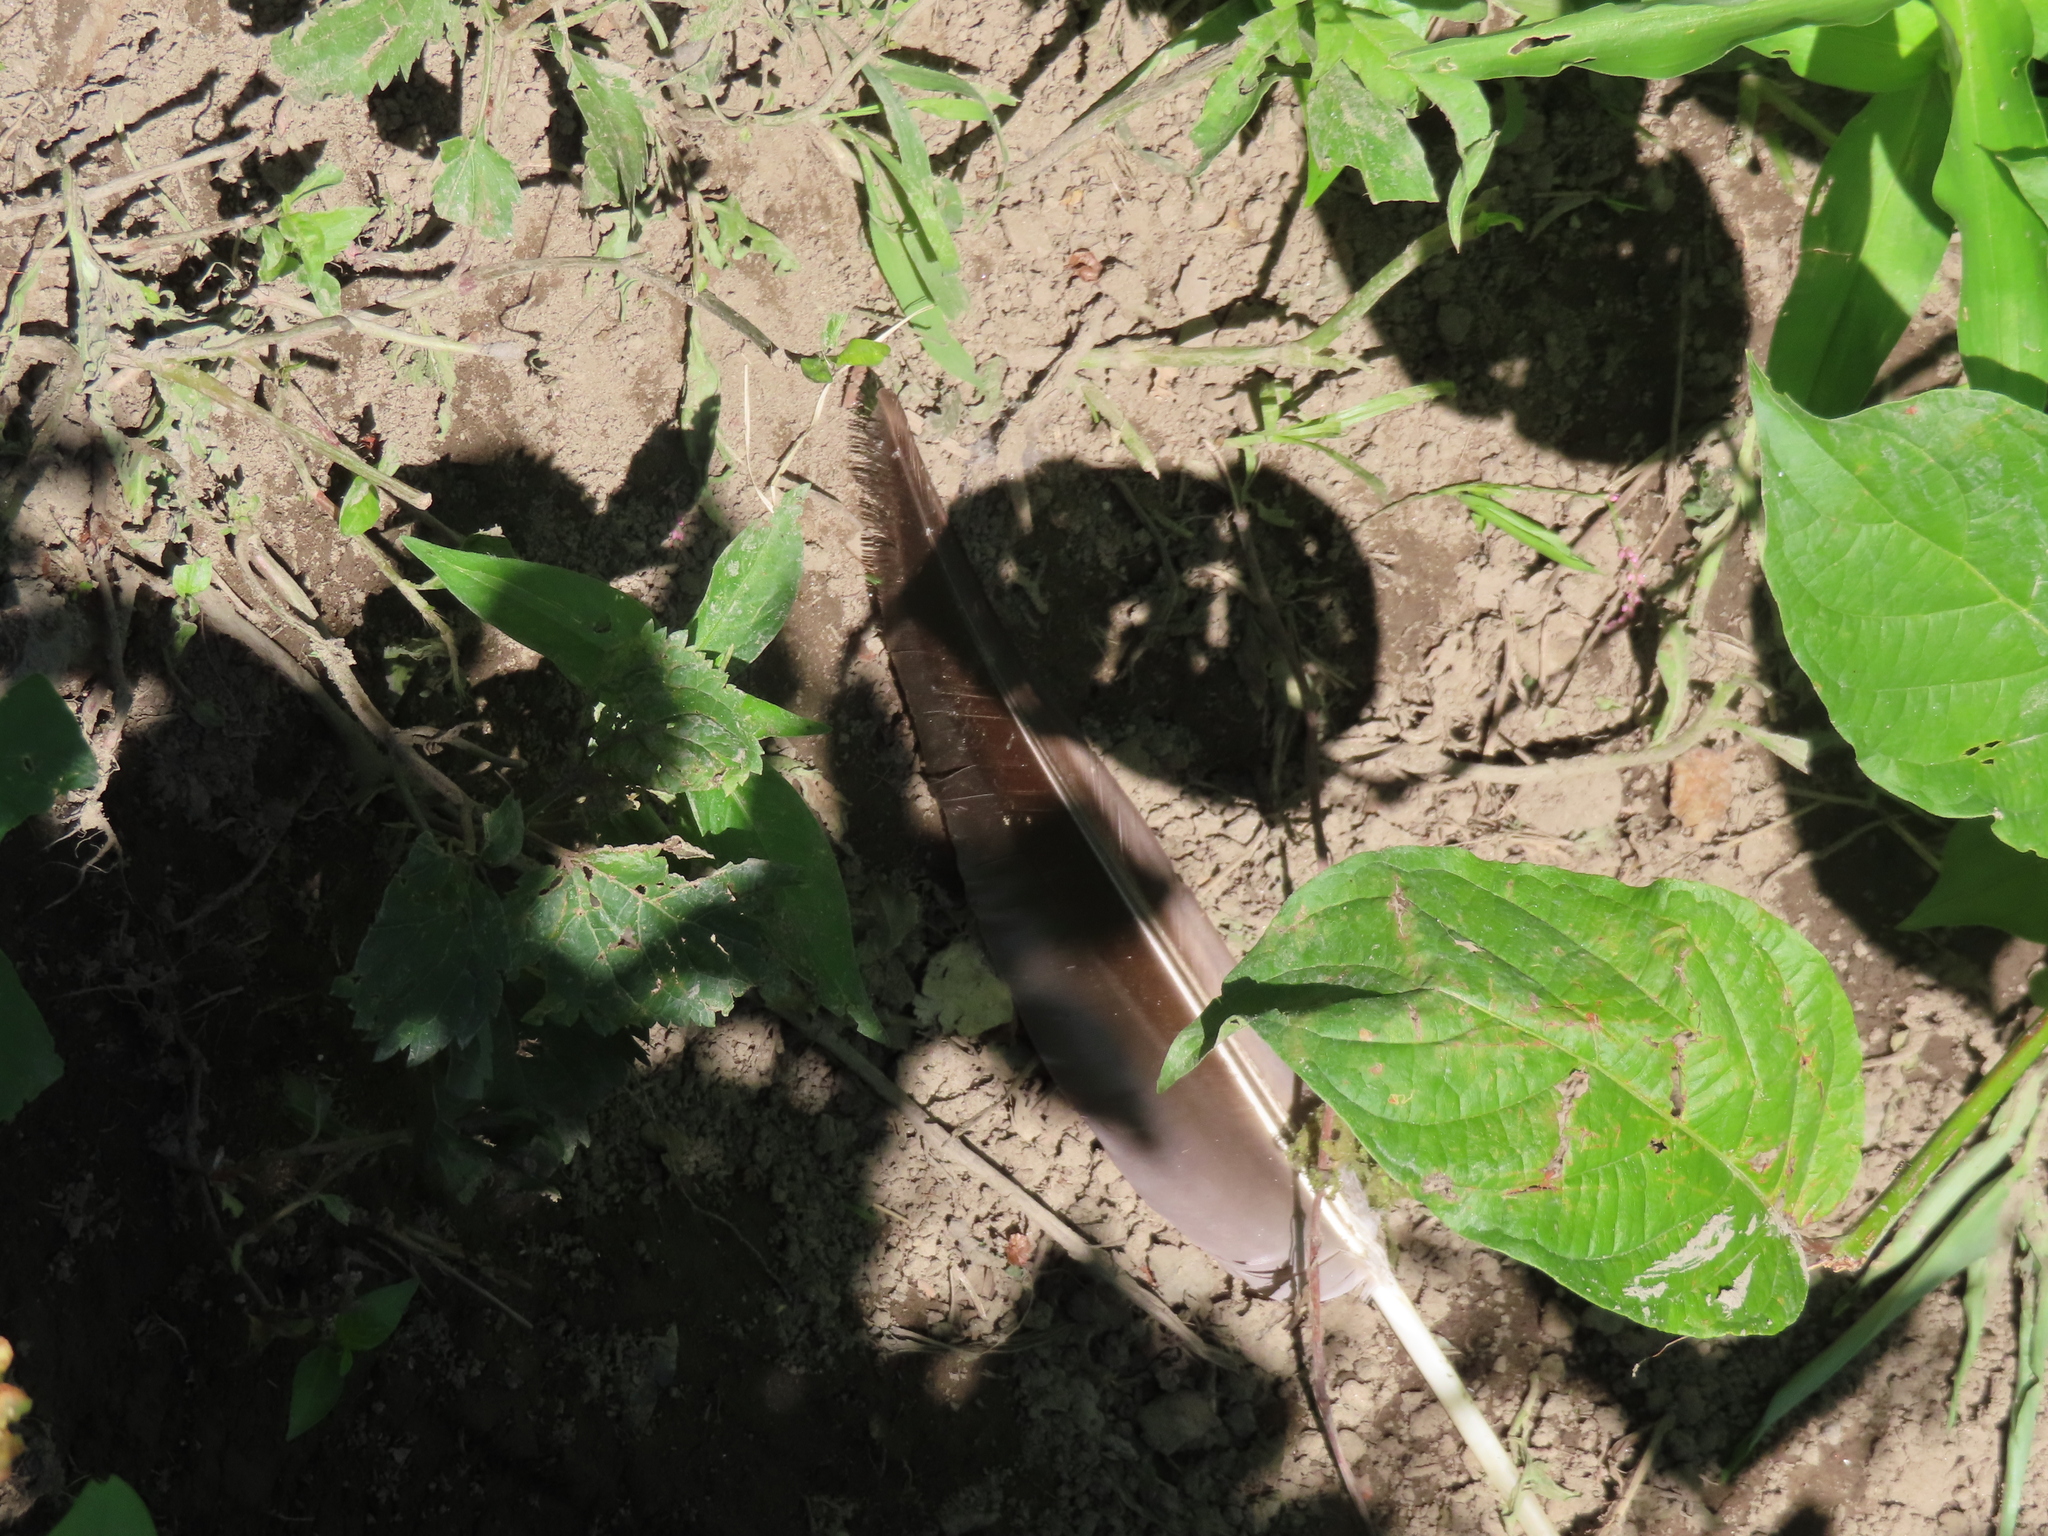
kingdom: Animalia
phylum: Chordata
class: Aves
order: Anseriformes
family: Anatidae
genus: Branta
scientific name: Branta canadensis
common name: Canada goose
